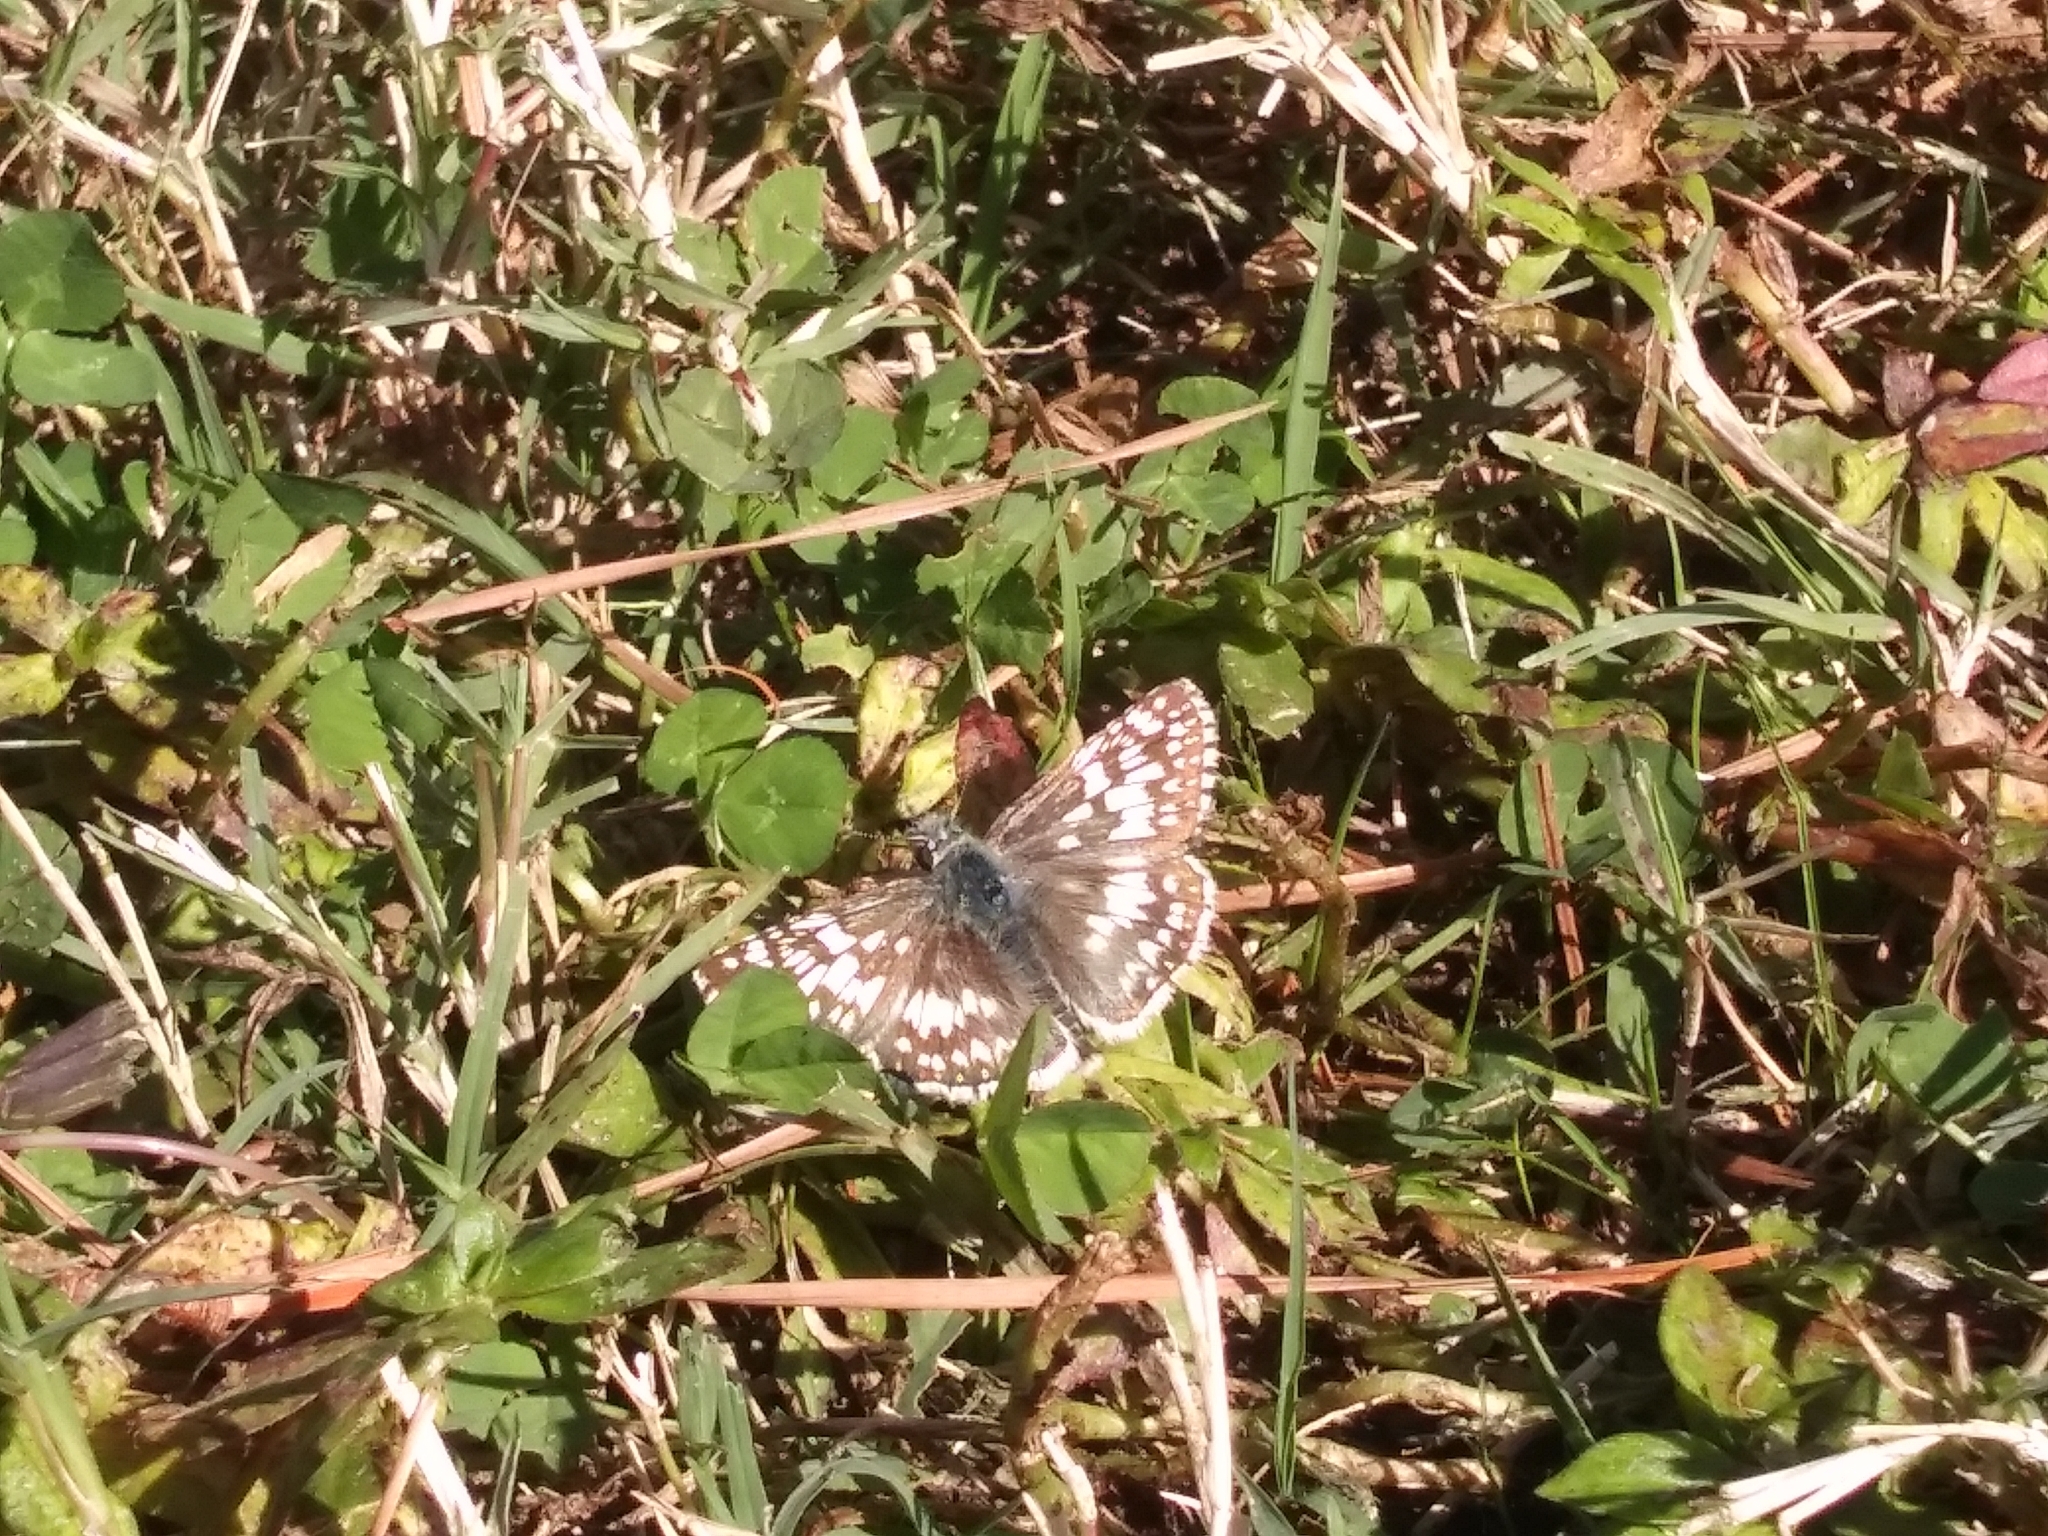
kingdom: Animalia
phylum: Arthropoda
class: Insecta
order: Lepidoptera
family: Hesperiidae
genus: Burnsius
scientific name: Burnsius communis
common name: Common checkered-skipper
